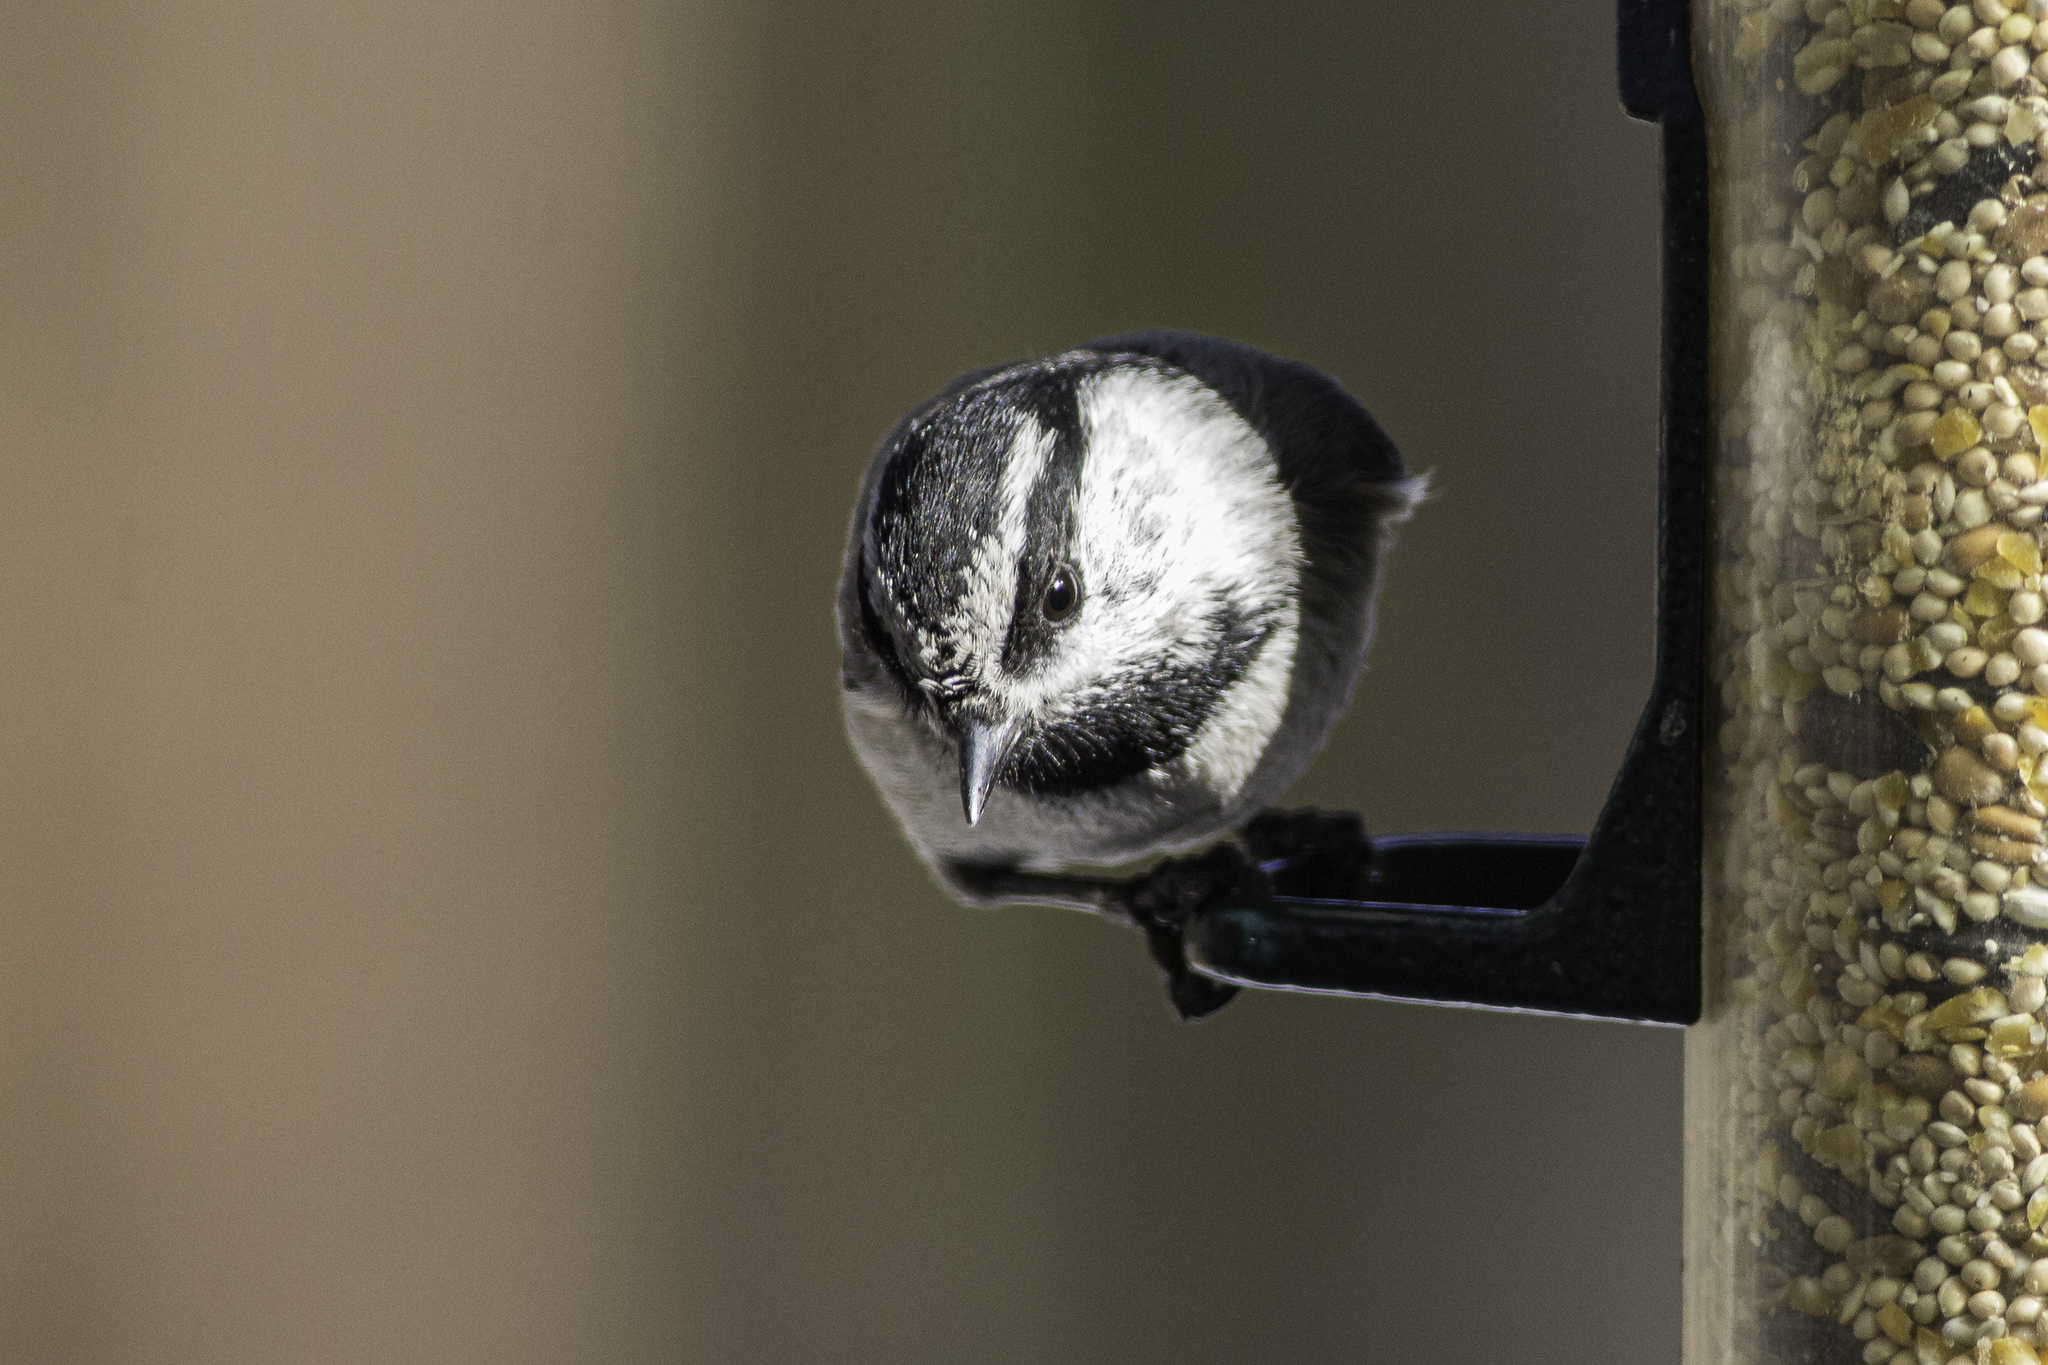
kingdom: Animalia
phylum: Chordata
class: Aves
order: Passeriformes
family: Paridae
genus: Poecile
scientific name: Poecile gambeli
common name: Mountain chickadee
